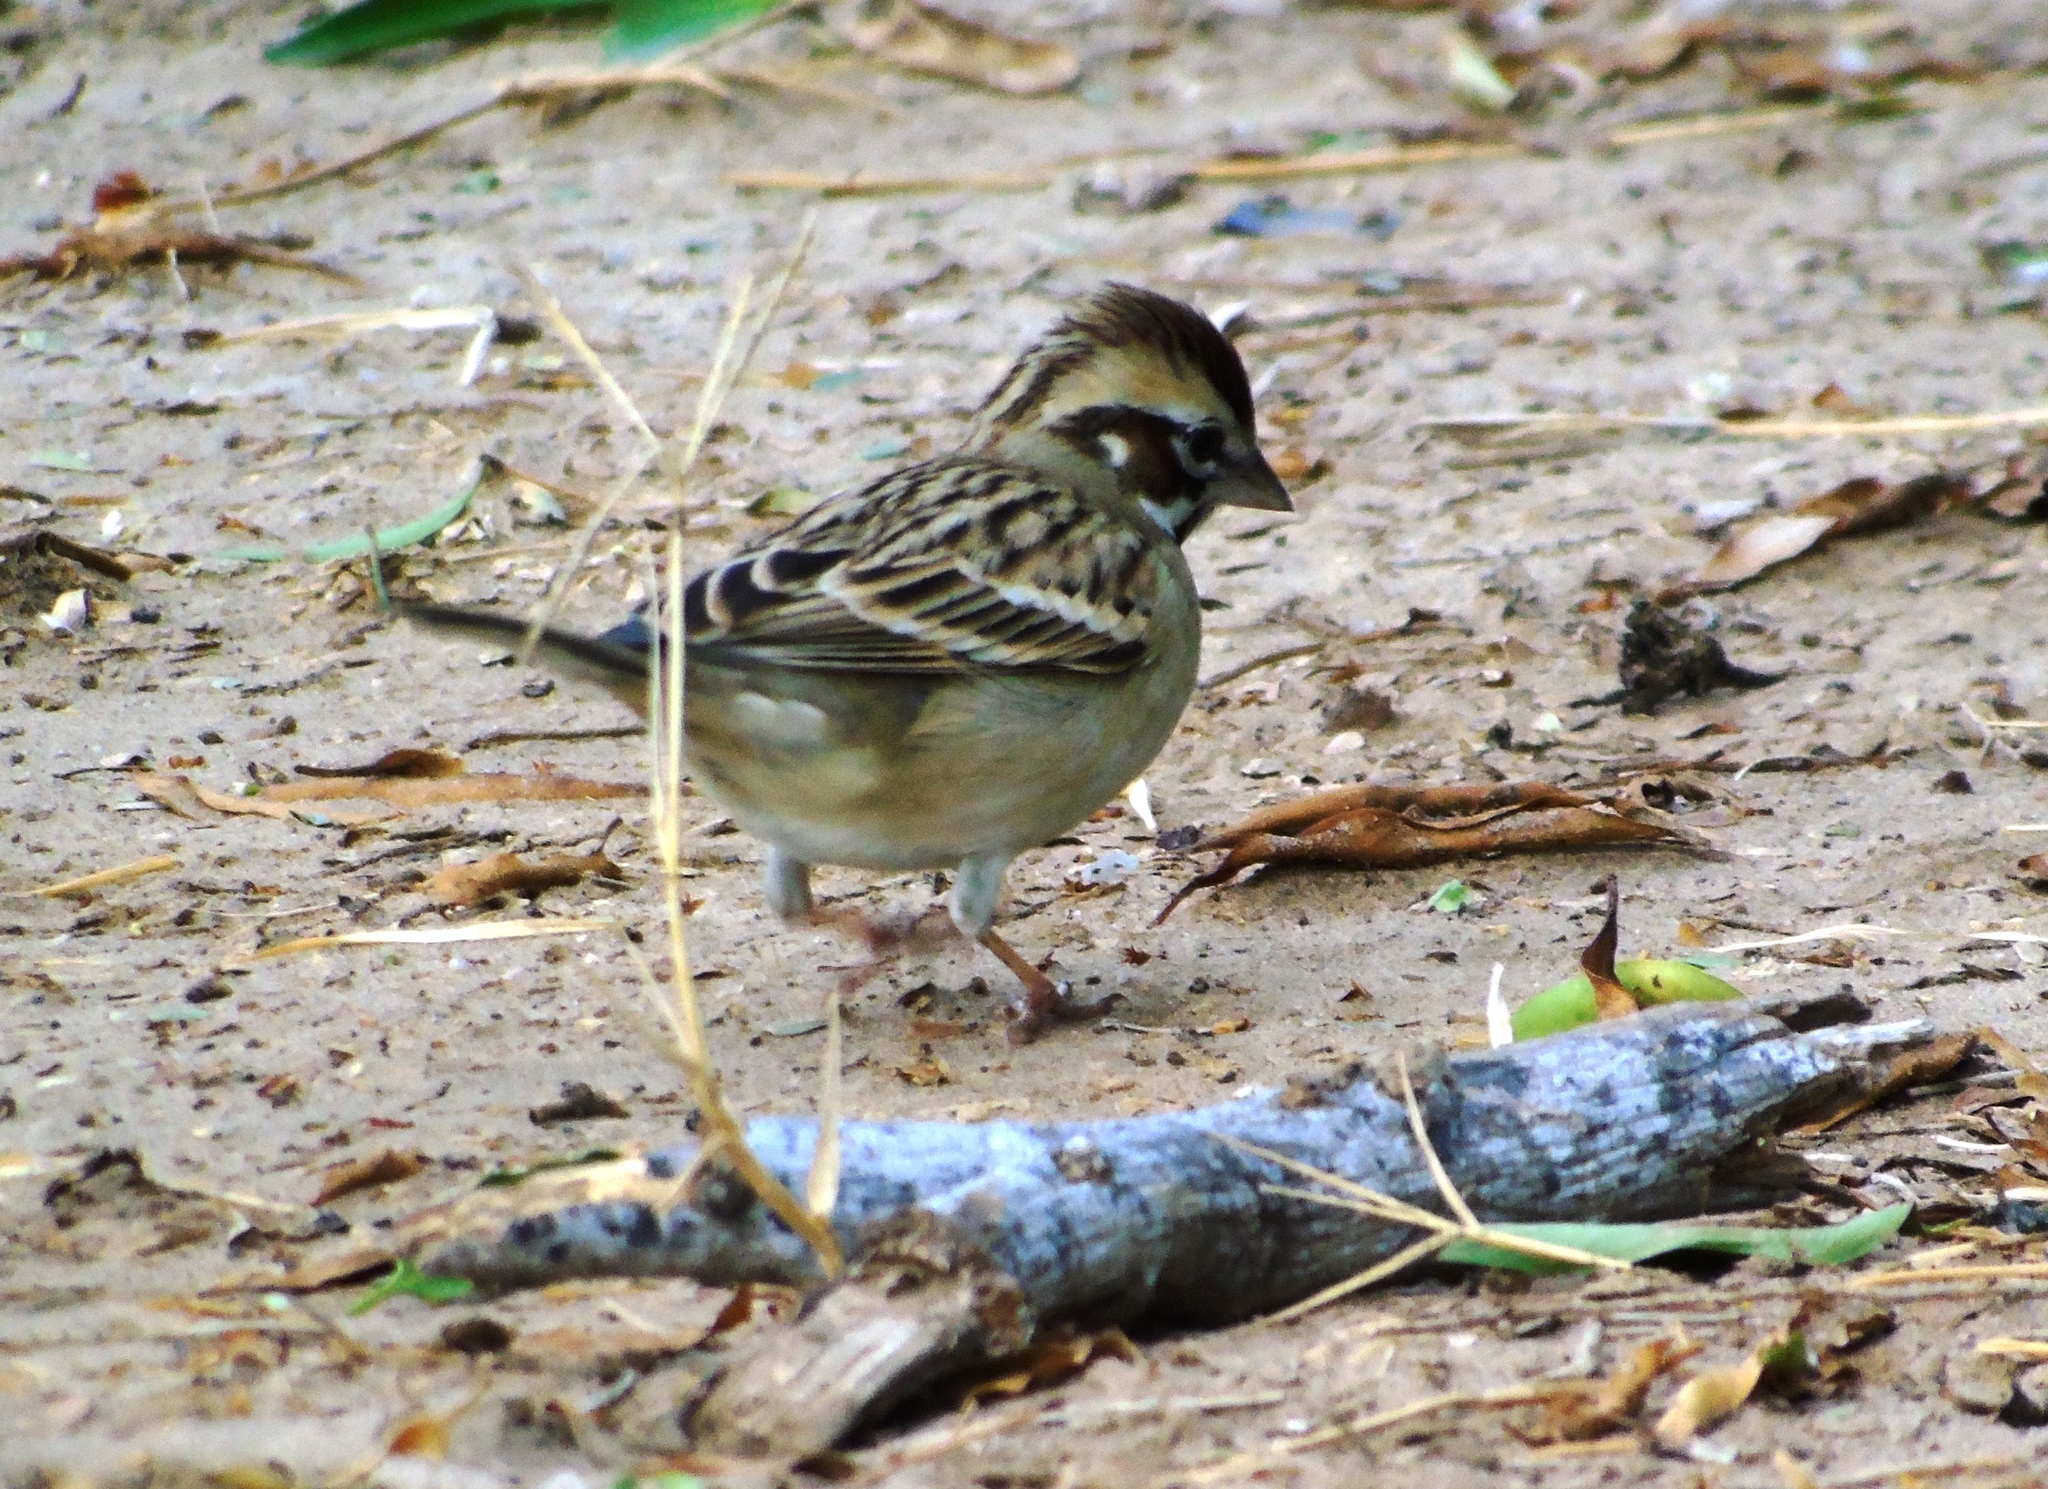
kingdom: Animalia
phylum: Chordata
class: Aves
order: Passeriformes
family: Passerellidae
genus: Chondestes
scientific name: Chondestes grammacus
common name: Lark sparrow
